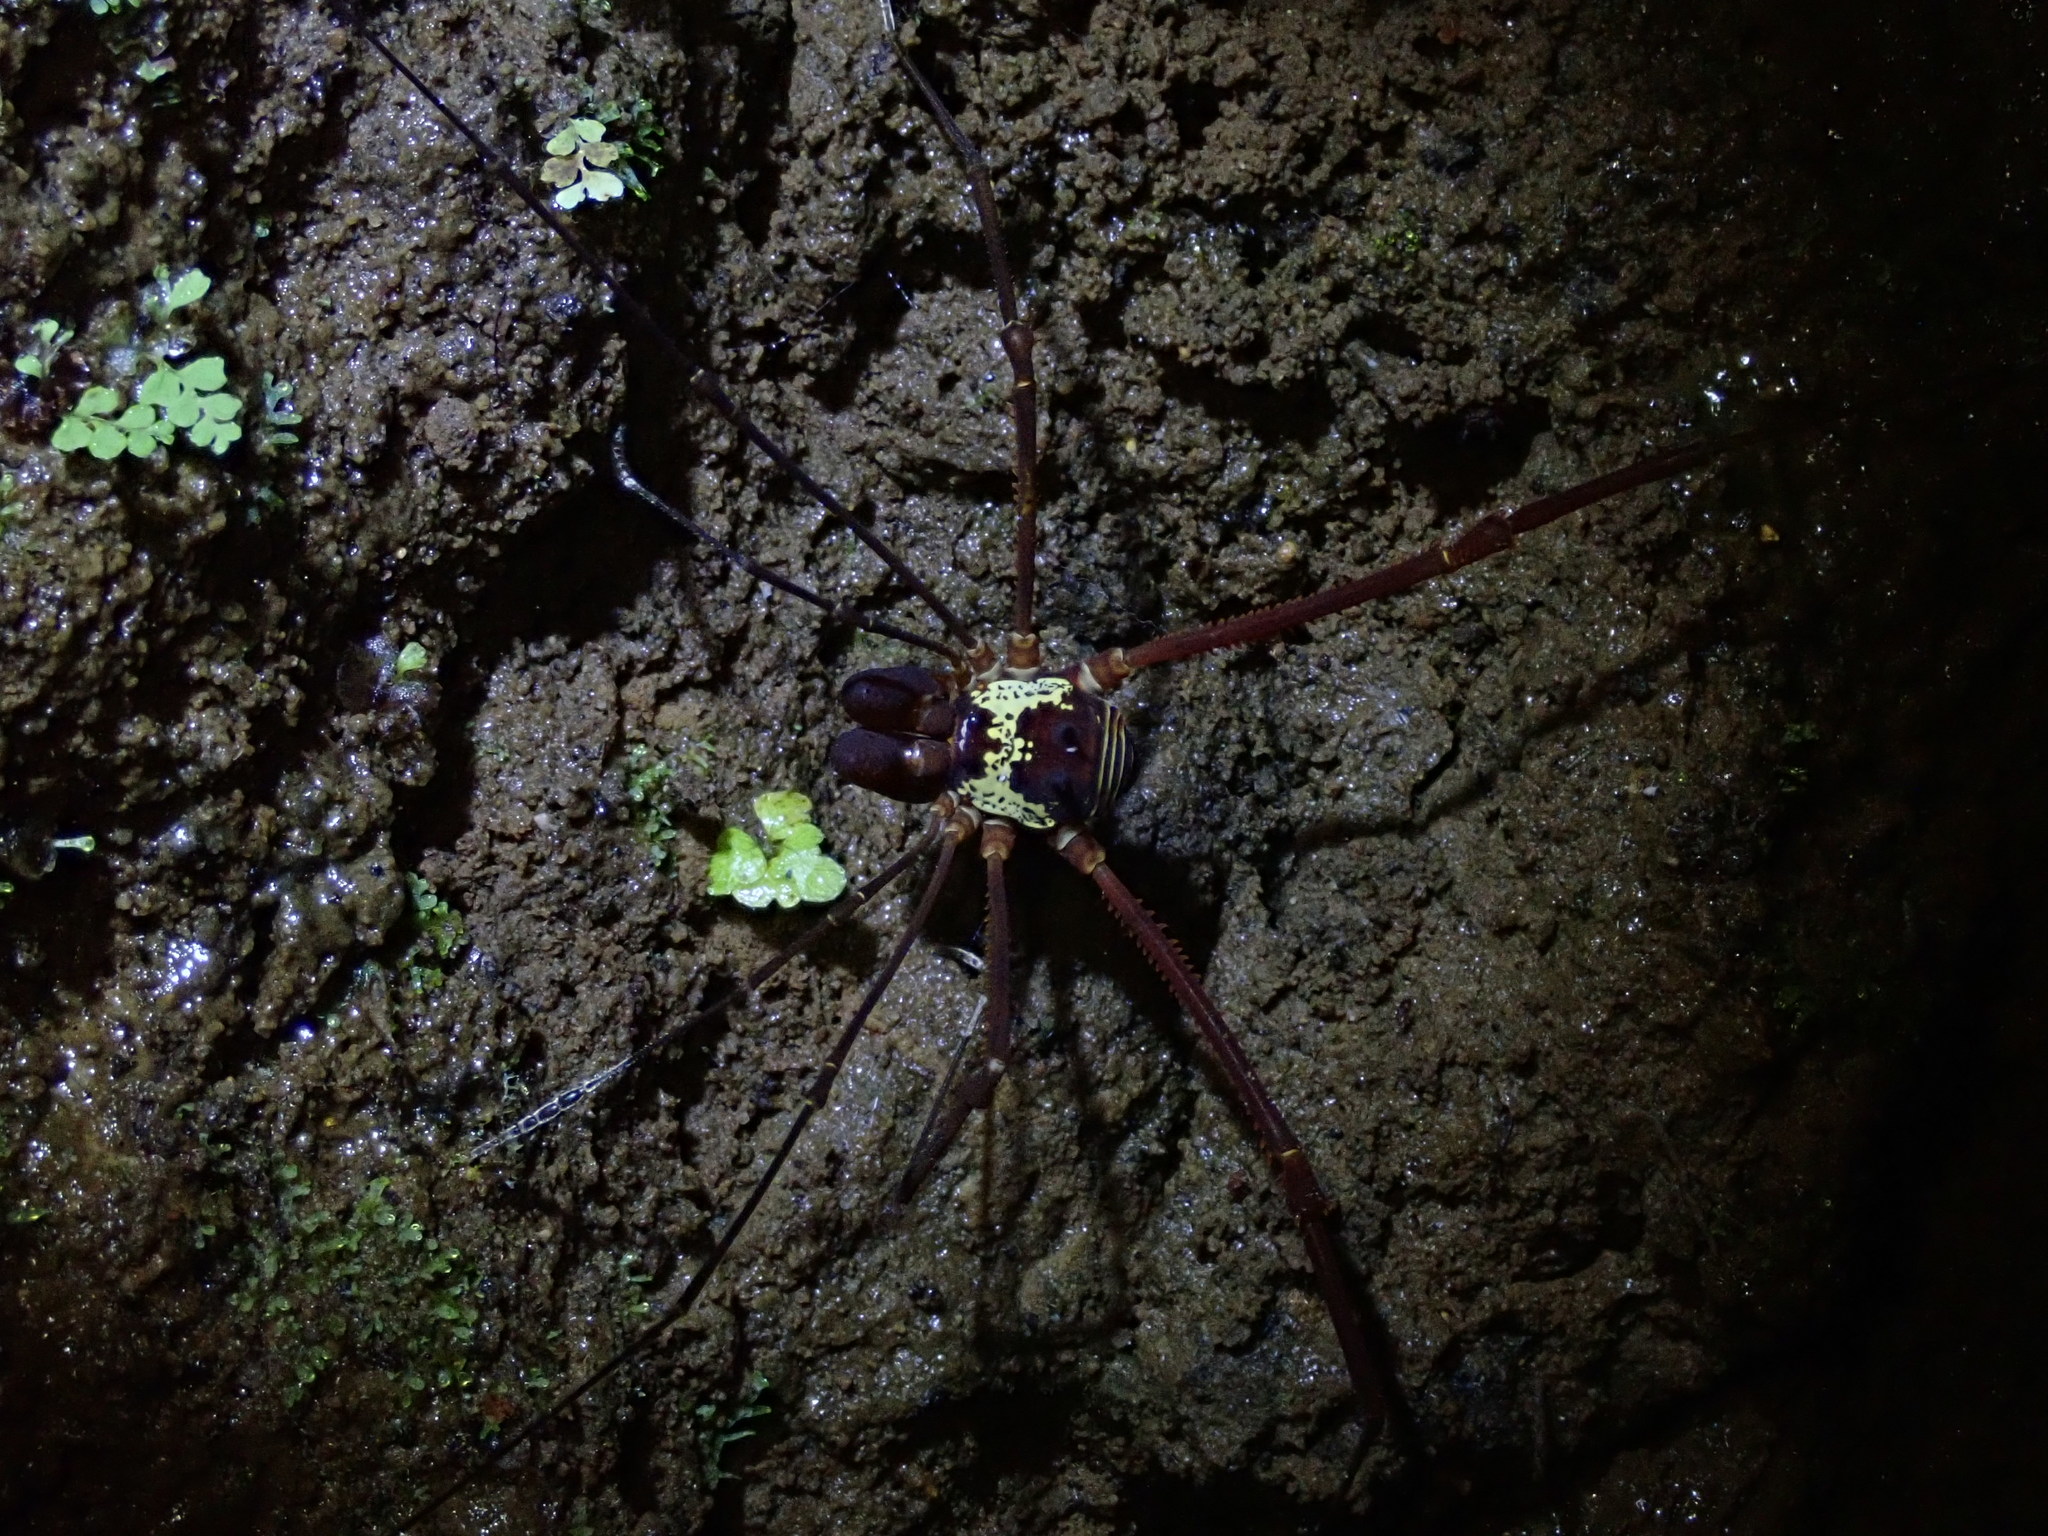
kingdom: Animalia
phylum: Arthropoda
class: Arachnida
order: Opiliones
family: Cosmetidae
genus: Meterginus
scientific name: Meterginus serratus
